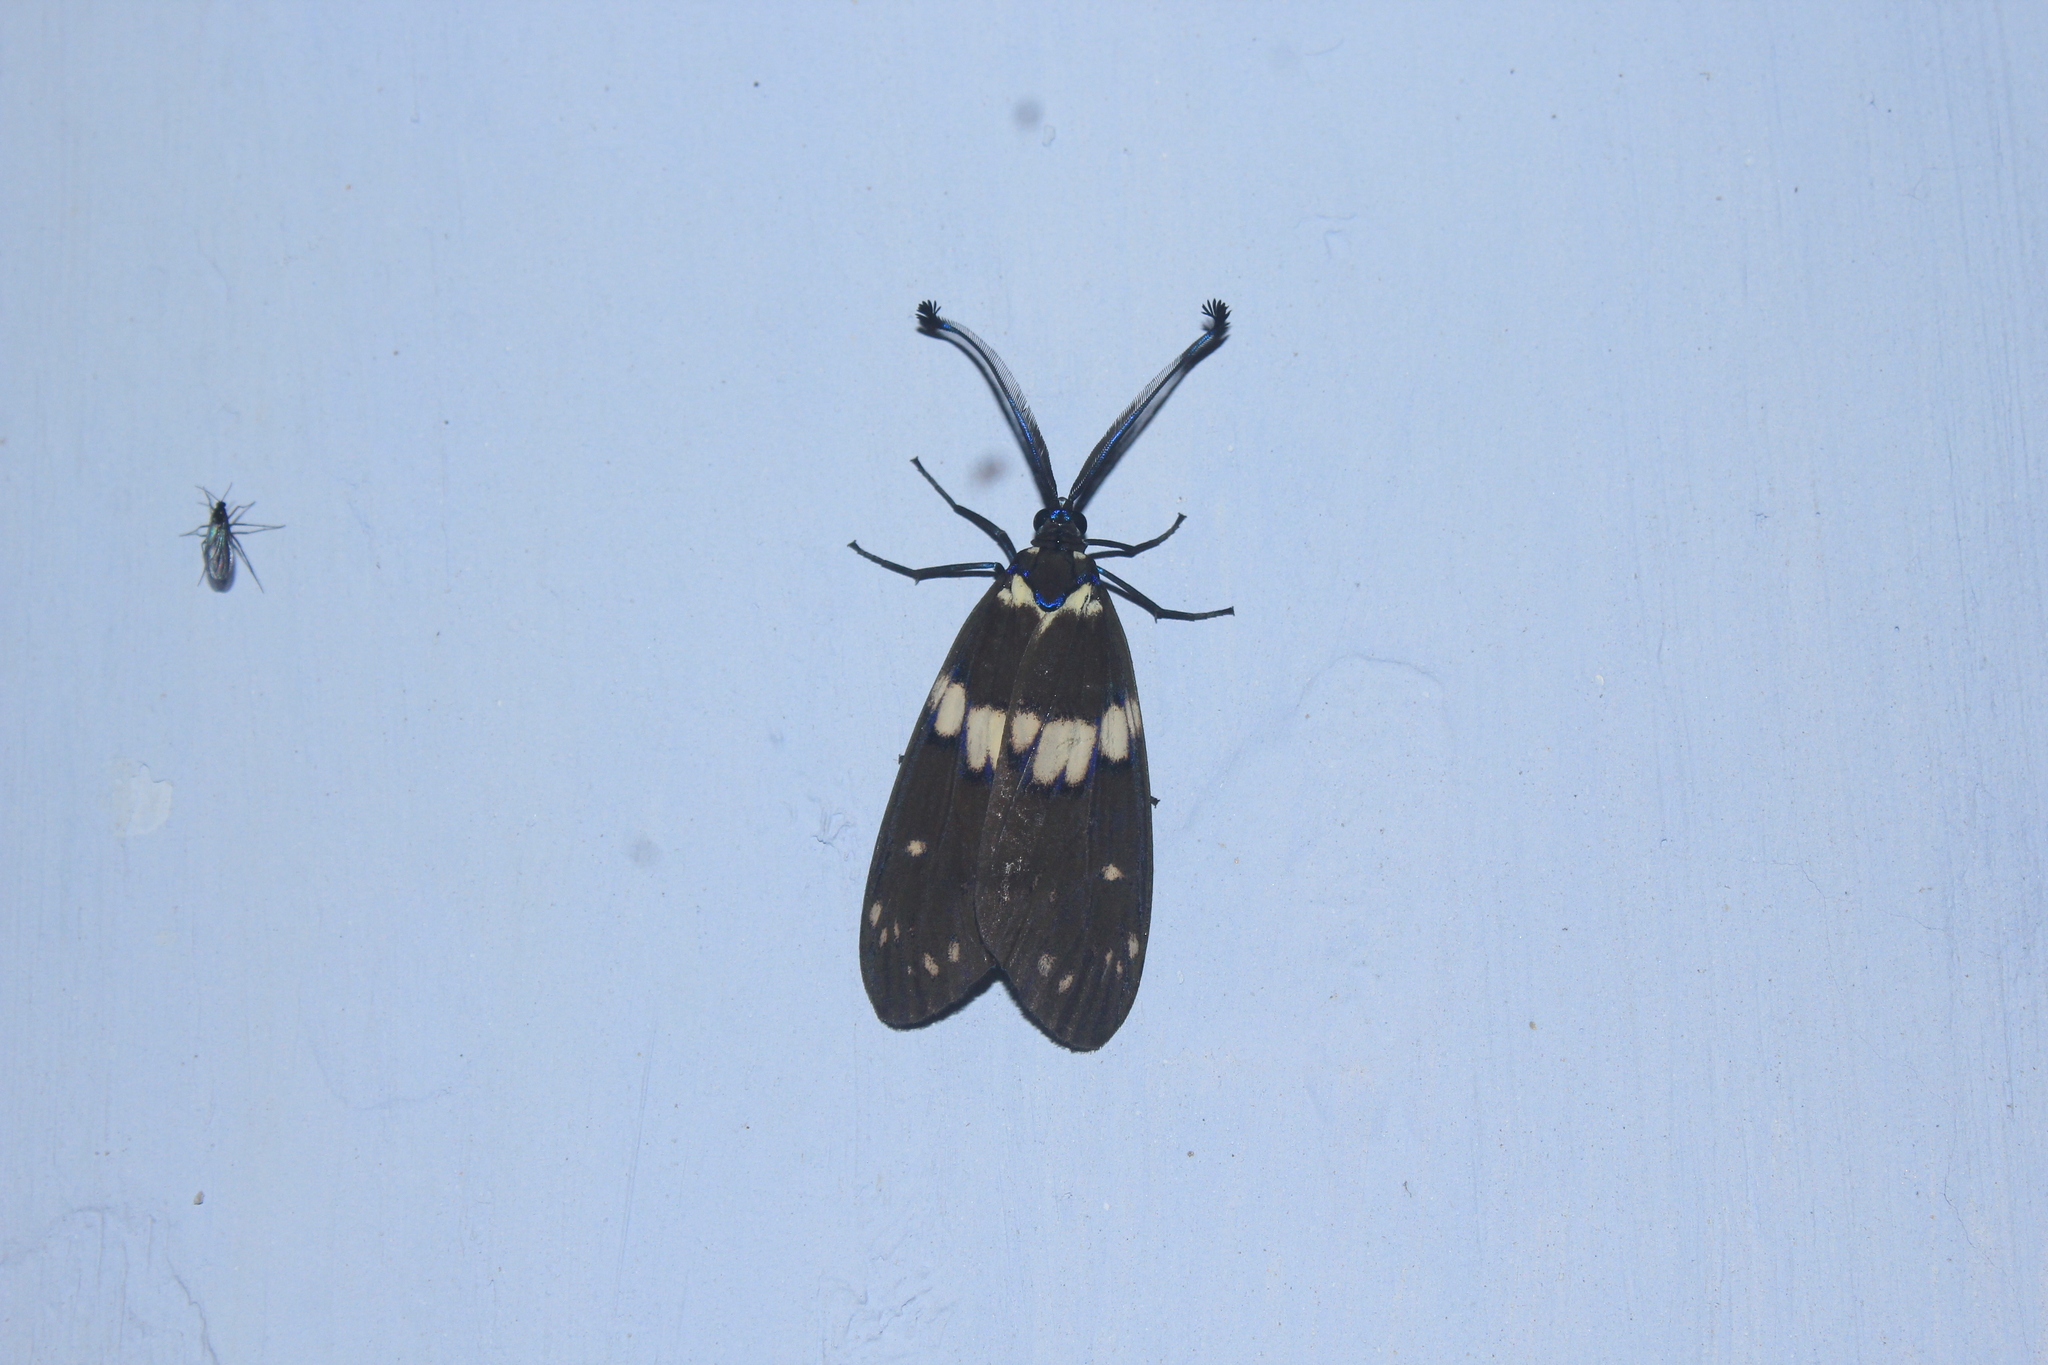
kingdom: Animalia
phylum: Arthropoda
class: Insecta
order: Lepidoptera
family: Zygaenidae
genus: Eterusia
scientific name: Eterusia aedea
